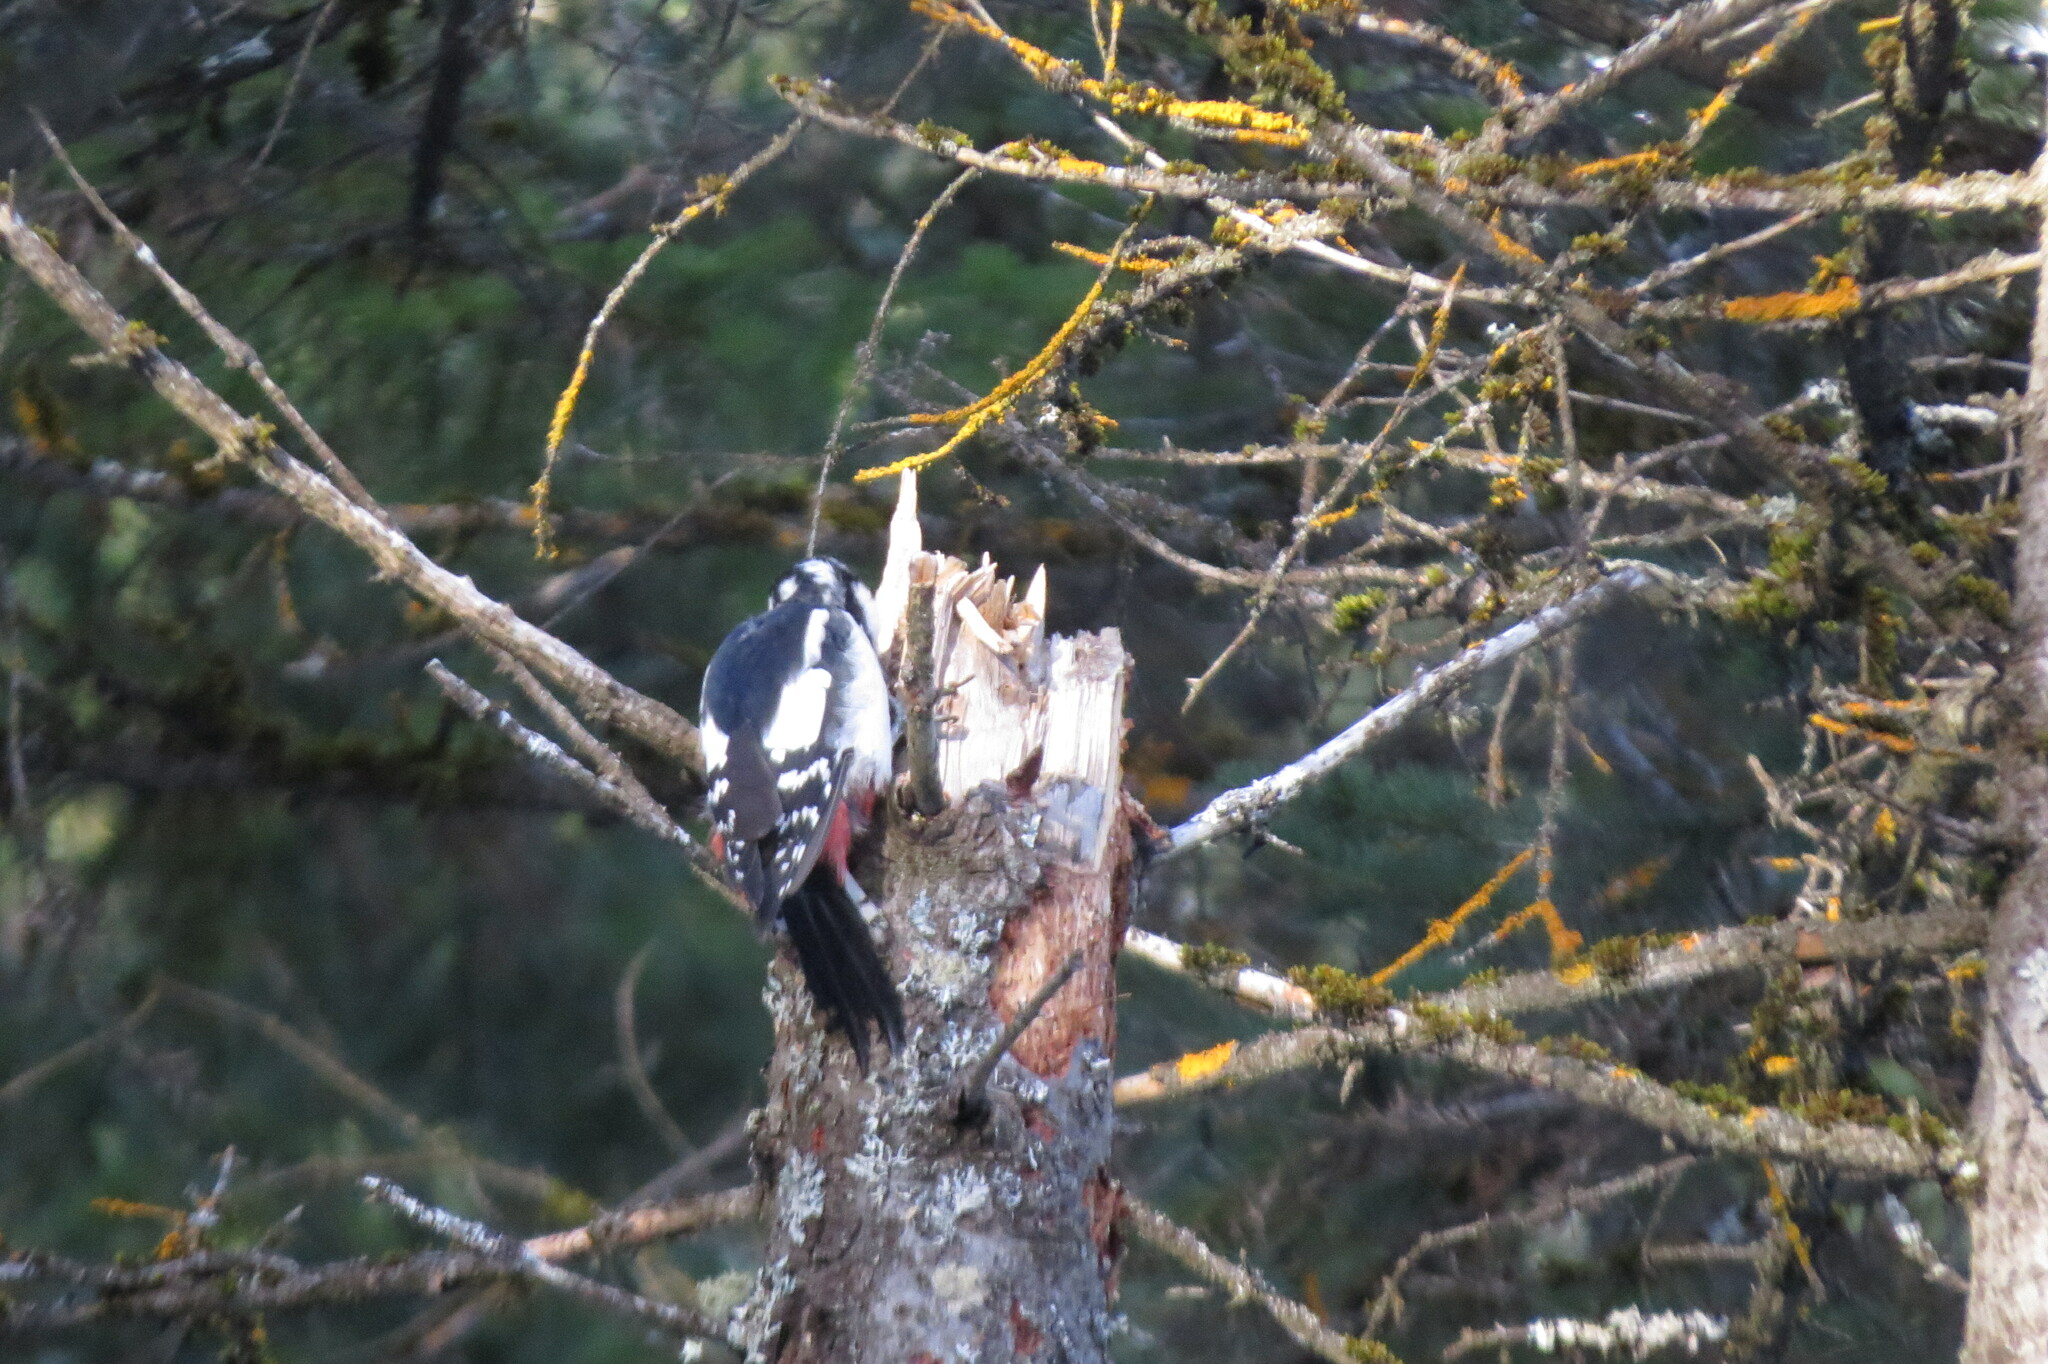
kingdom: Animalia
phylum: Chordata
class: Aves
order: Piciformes
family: Picidae
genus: Dendrocopos
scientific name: Dendrocopos major
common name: Great spotted woodpecker
